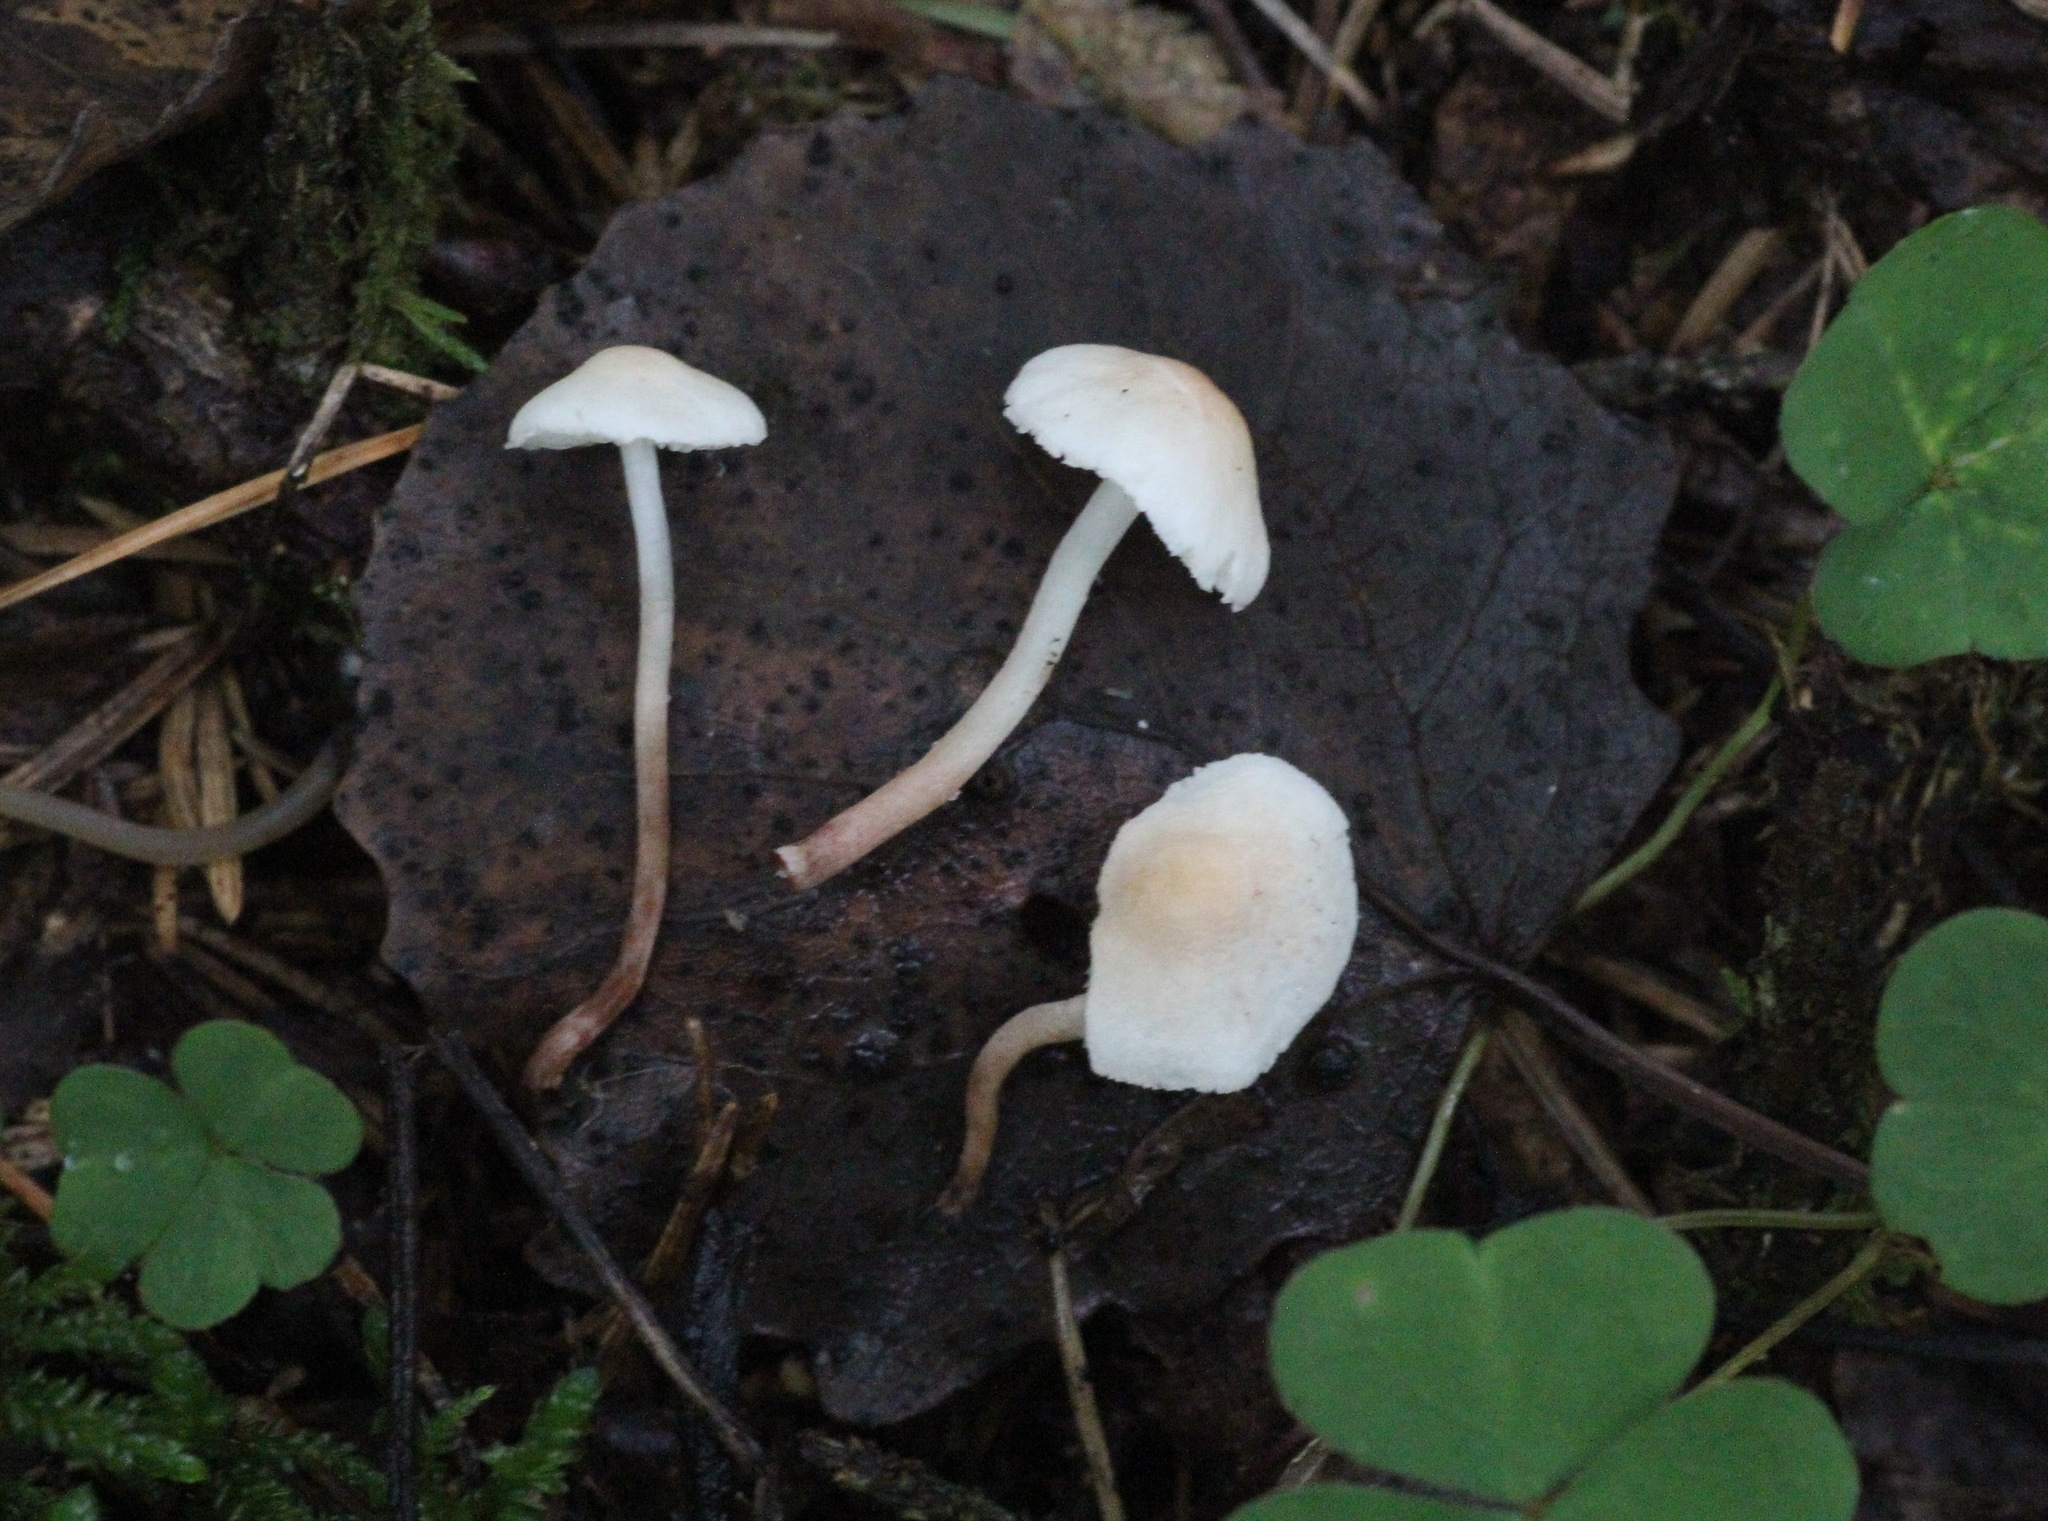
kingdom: Fungi
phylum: Basidiomycota
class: Agaricomycetes
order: Agaricales
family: Agaricaceae
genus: Cystolepiota
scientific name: Cystolepiota seminuda
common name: Bearded dapperling
